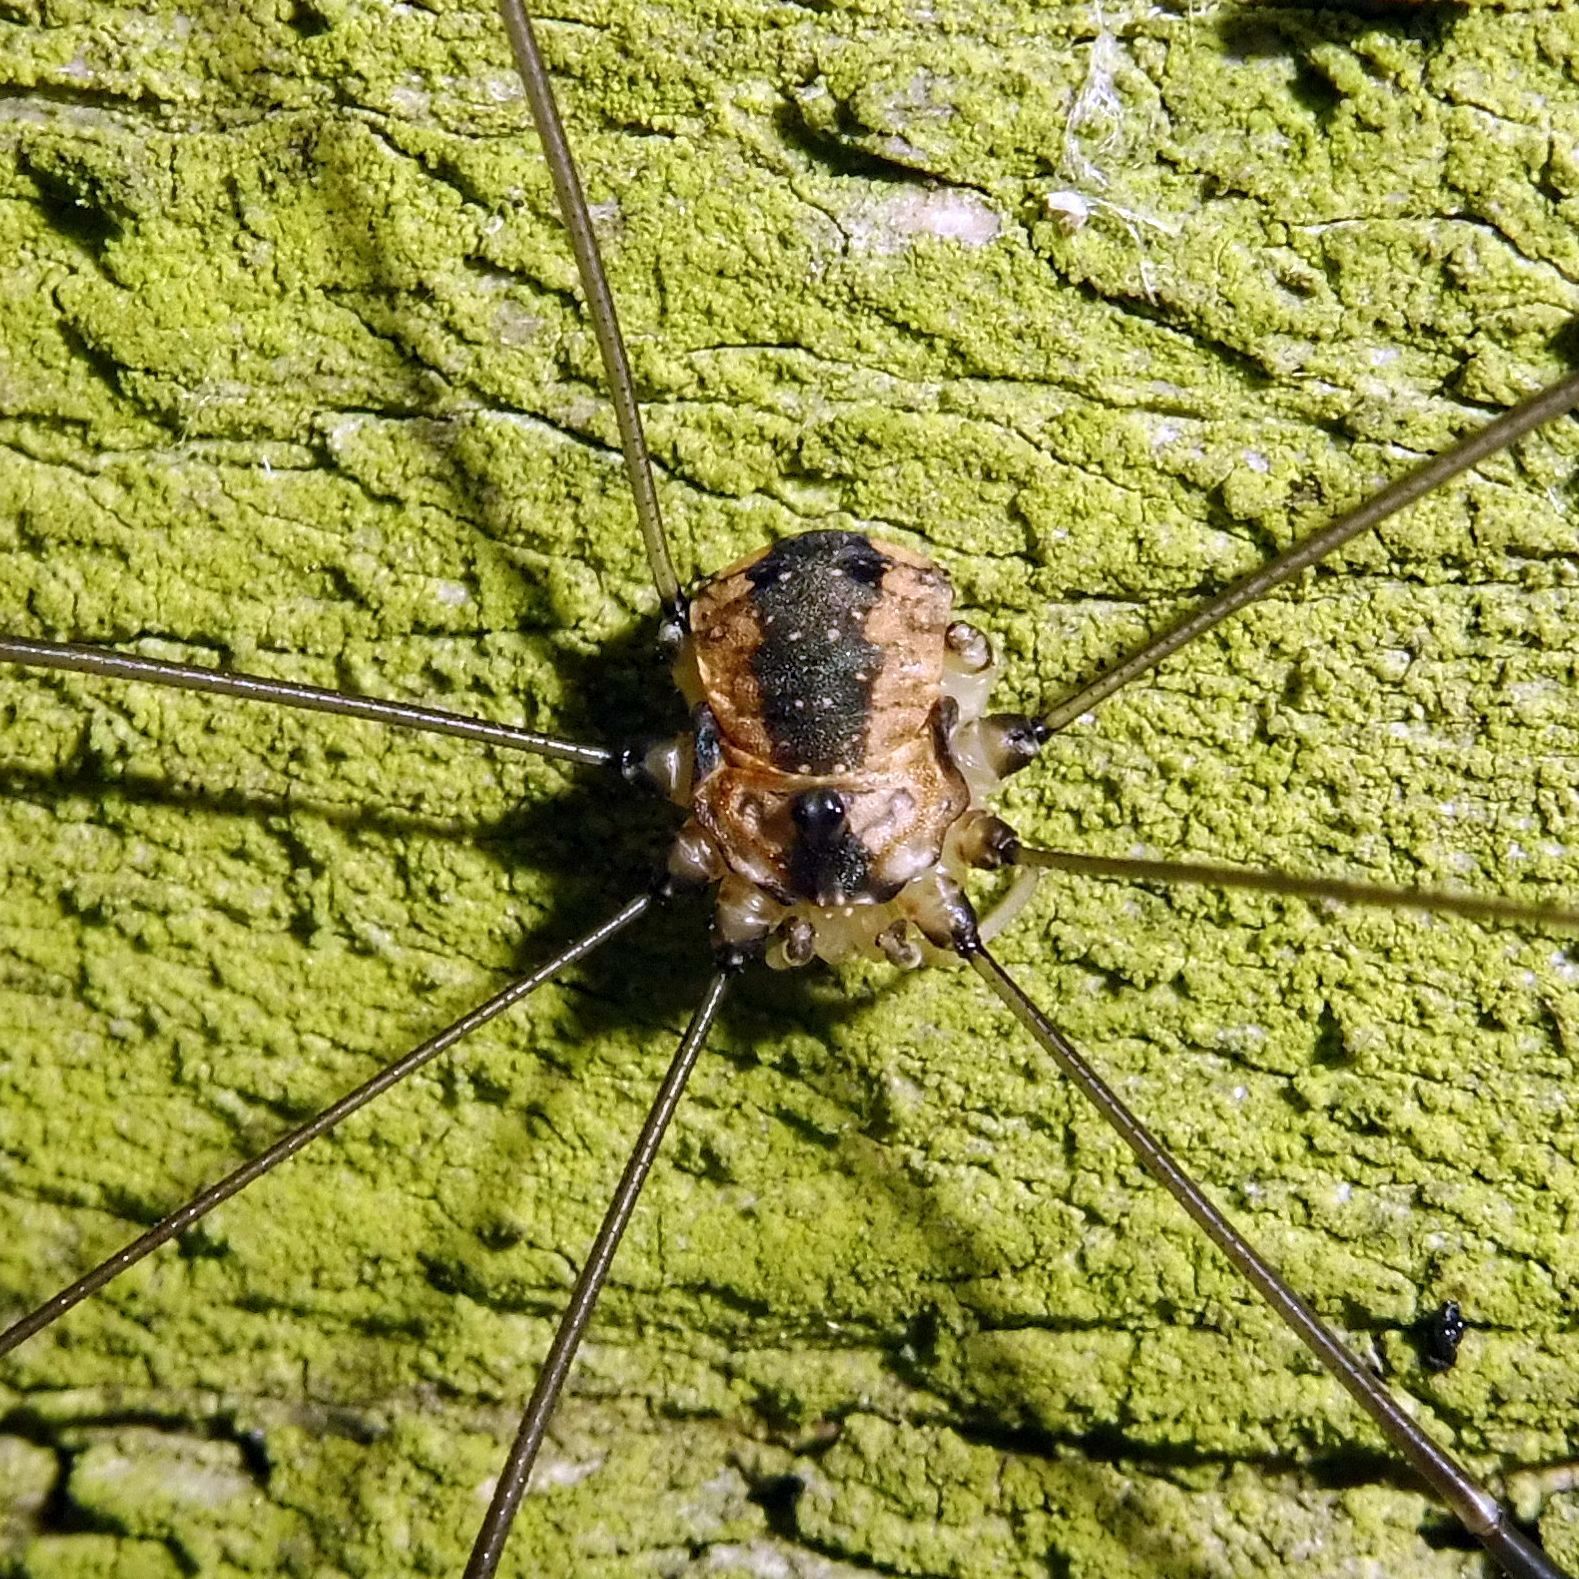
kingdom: Animalia
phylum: Arthropoda
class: Arachnida
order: Opiliones
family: Sclerosomatidae
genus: Leiobunum
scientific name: Leiobunum rotundum
